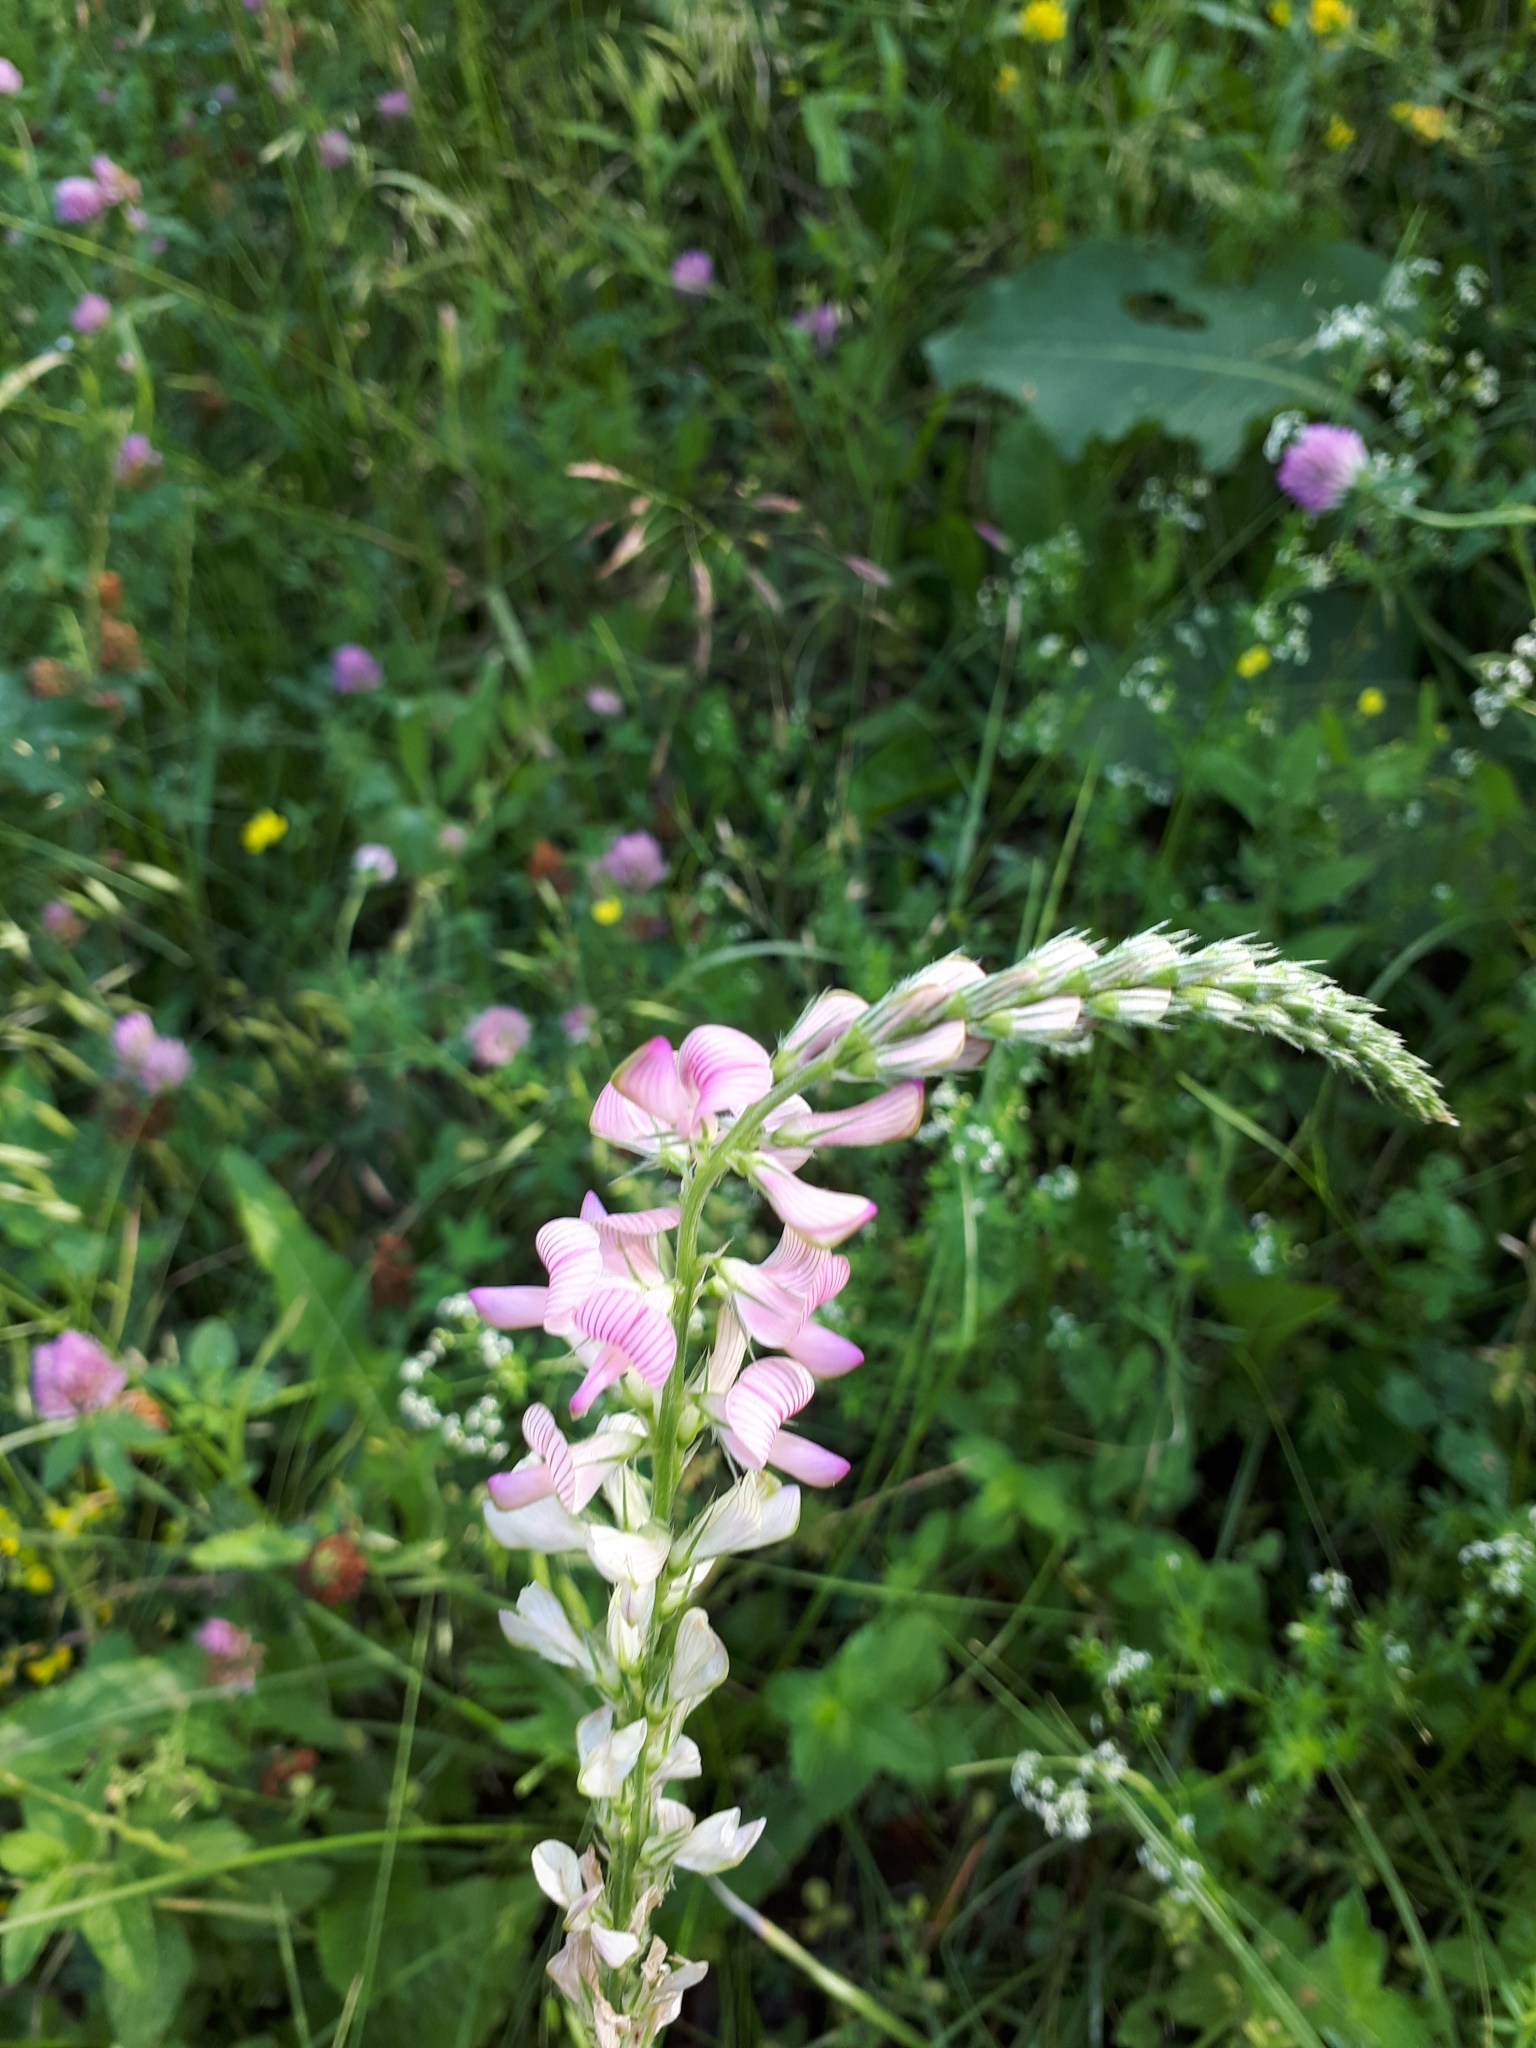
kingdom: Plantae
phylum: Tracheophyta
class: Magnoliopsida
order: Fabales
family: Fabaceae
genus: Onobrychis
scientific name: Onobrychis viciifolia
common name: Sainfoin
